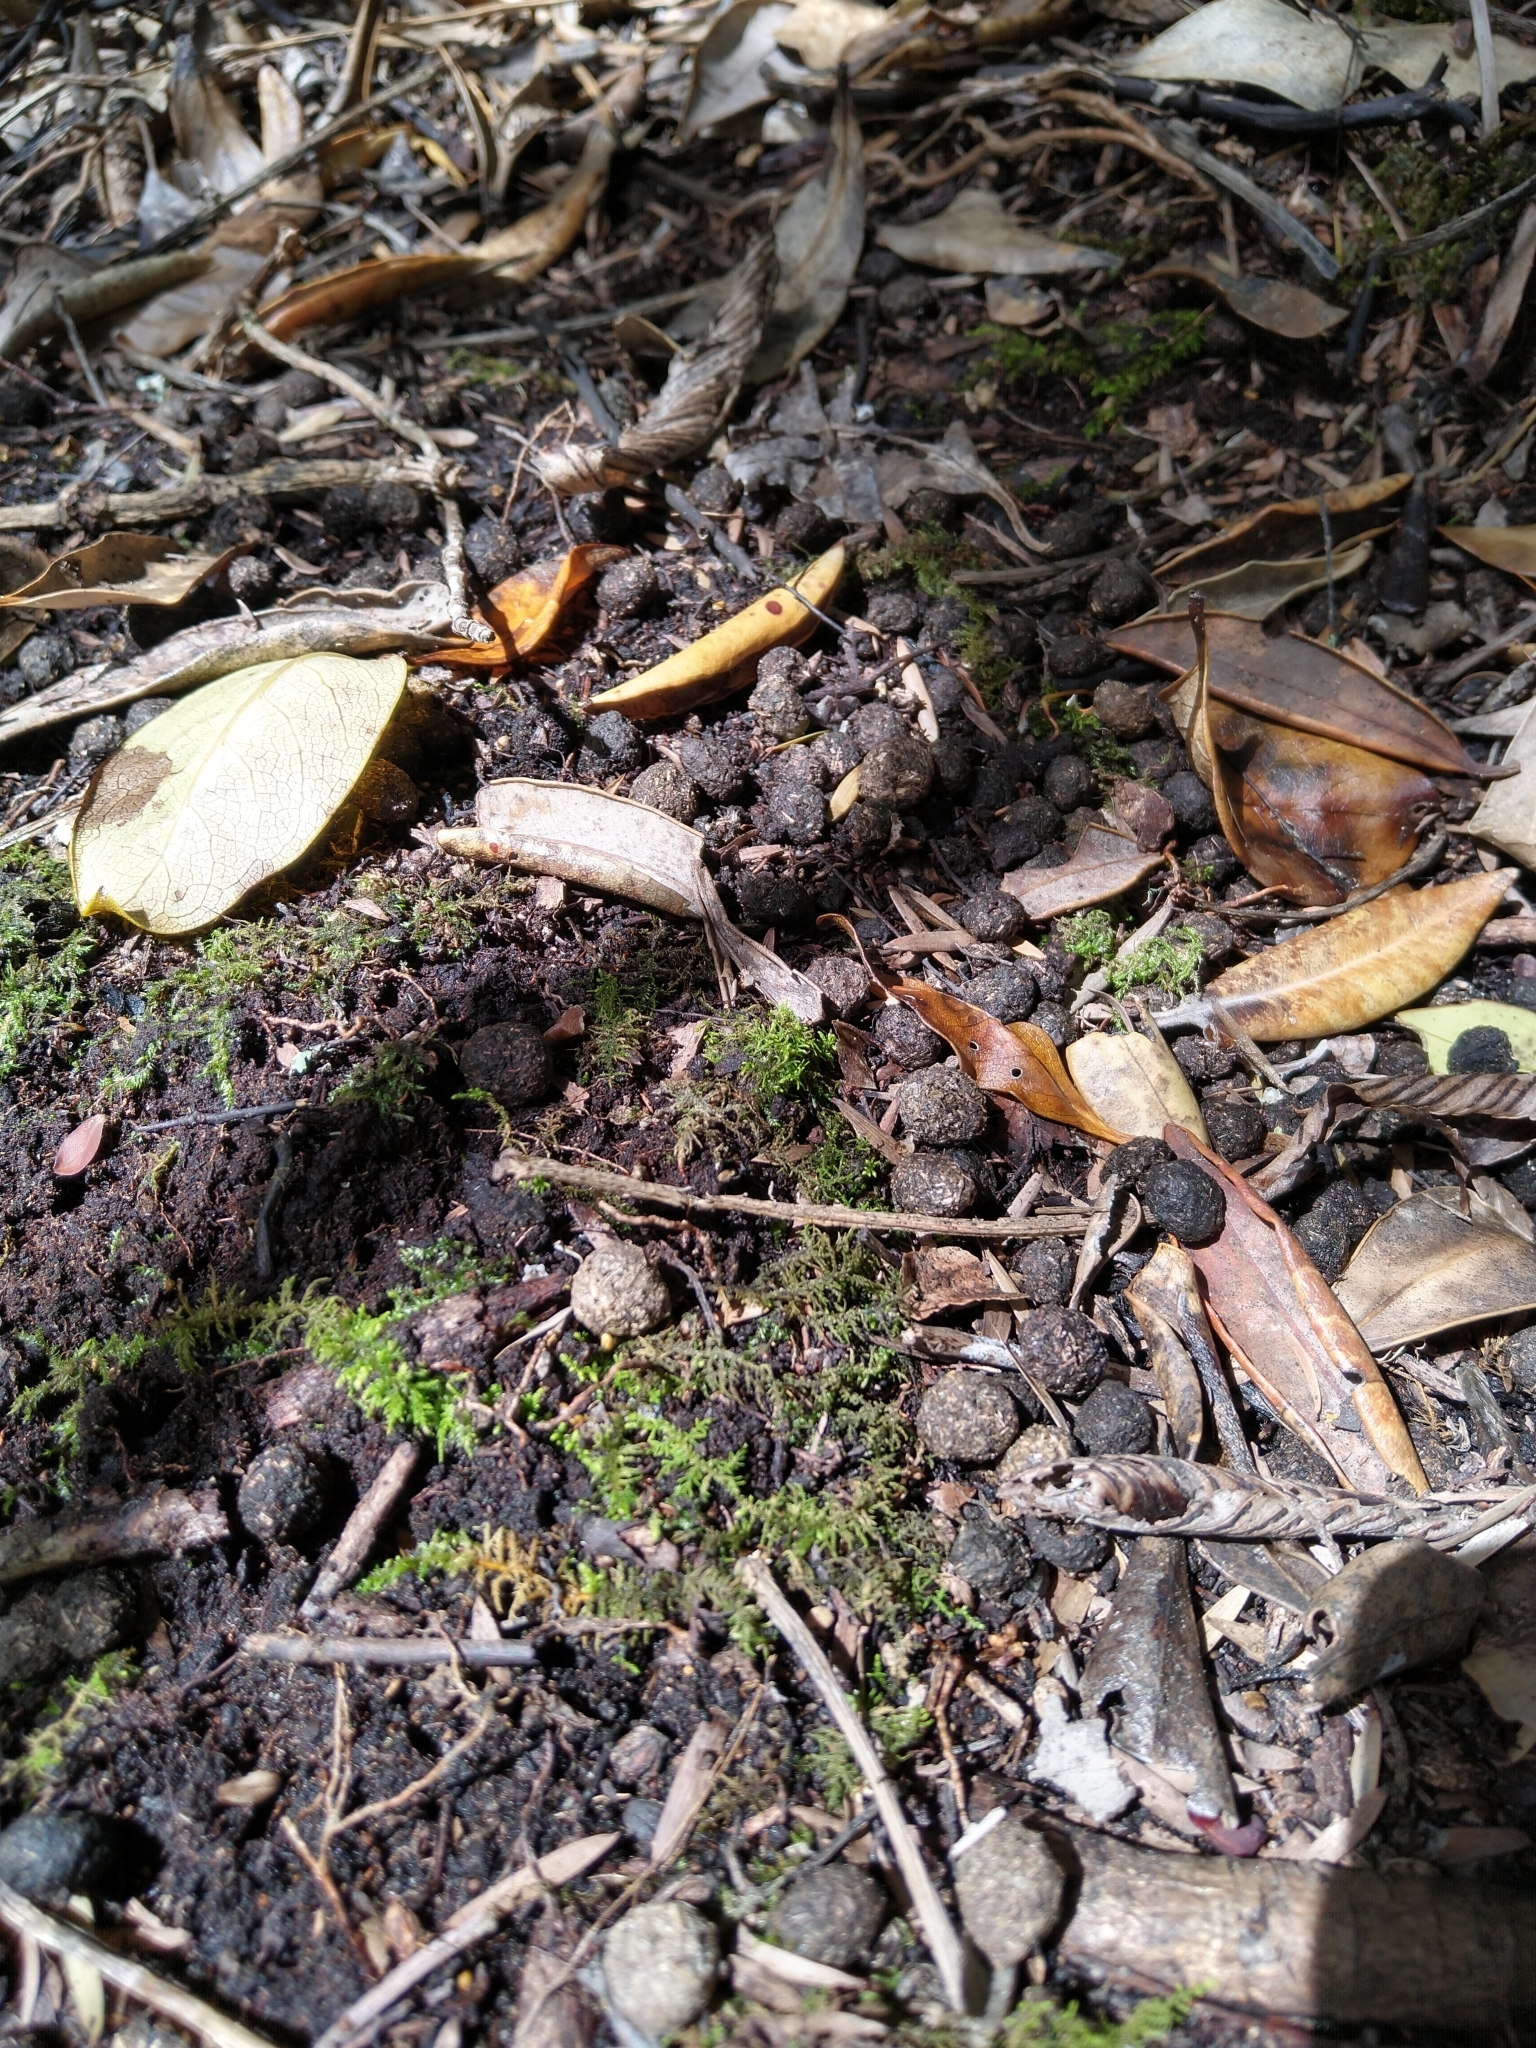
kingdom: Animalia
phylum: Chordata
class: Mammalia
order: Lagomorpha
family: Leporidae
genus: Oryctolagus
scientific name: Oryctolagus cuniculus
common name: European rabbit
